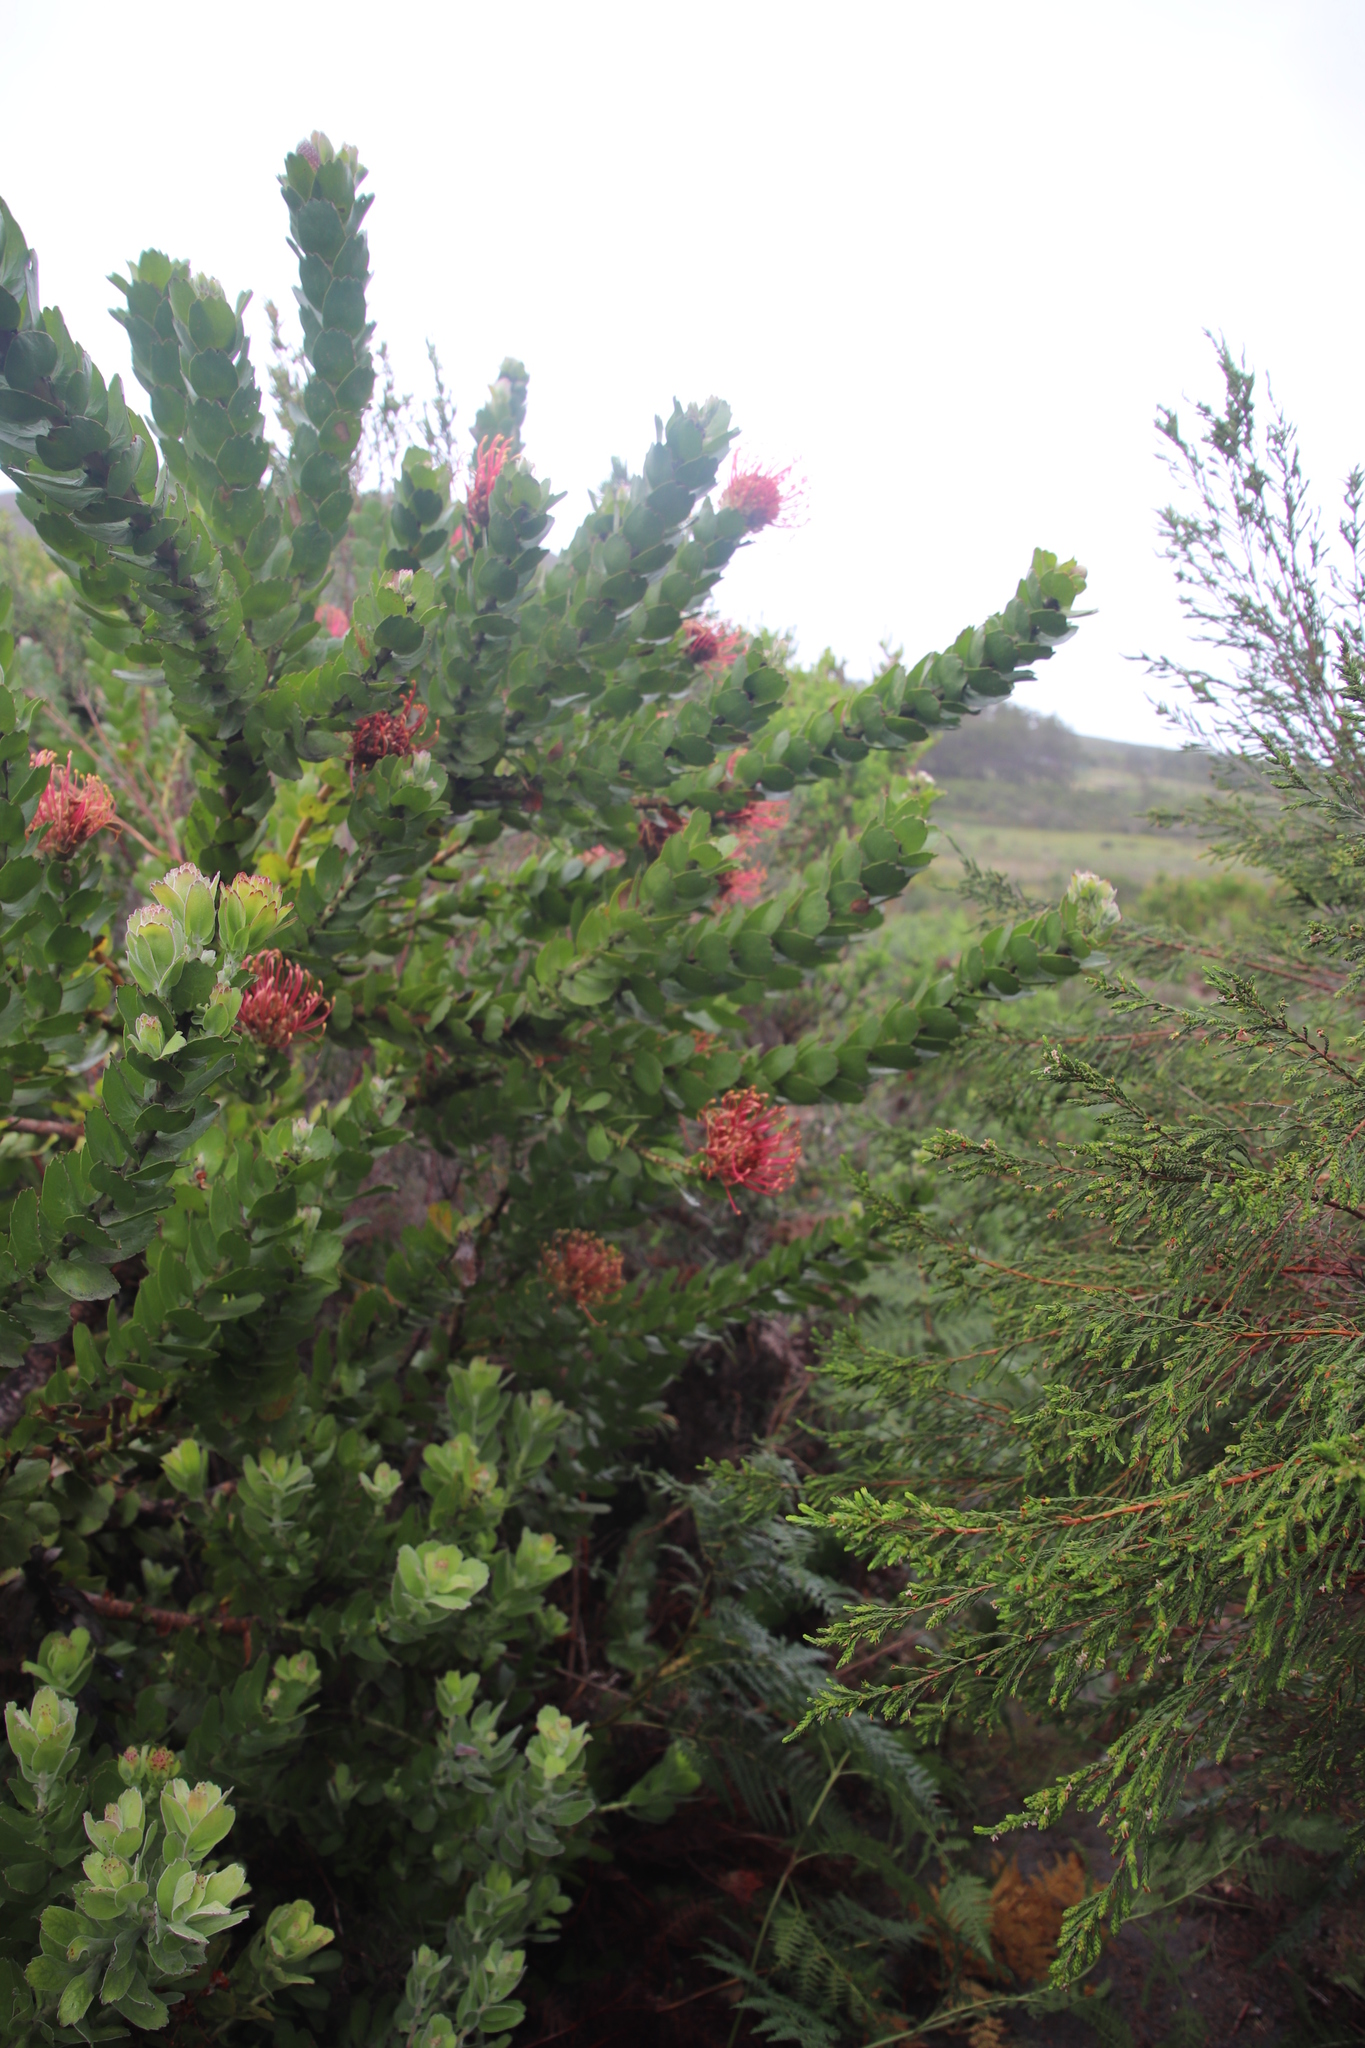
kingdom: Plantae
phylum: Tracheophyta
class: Magnoliopsida
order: Proteales
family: Proteaceae
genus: Leucospermum
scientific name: Leucospermum patersonii
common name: False tree pincushion
